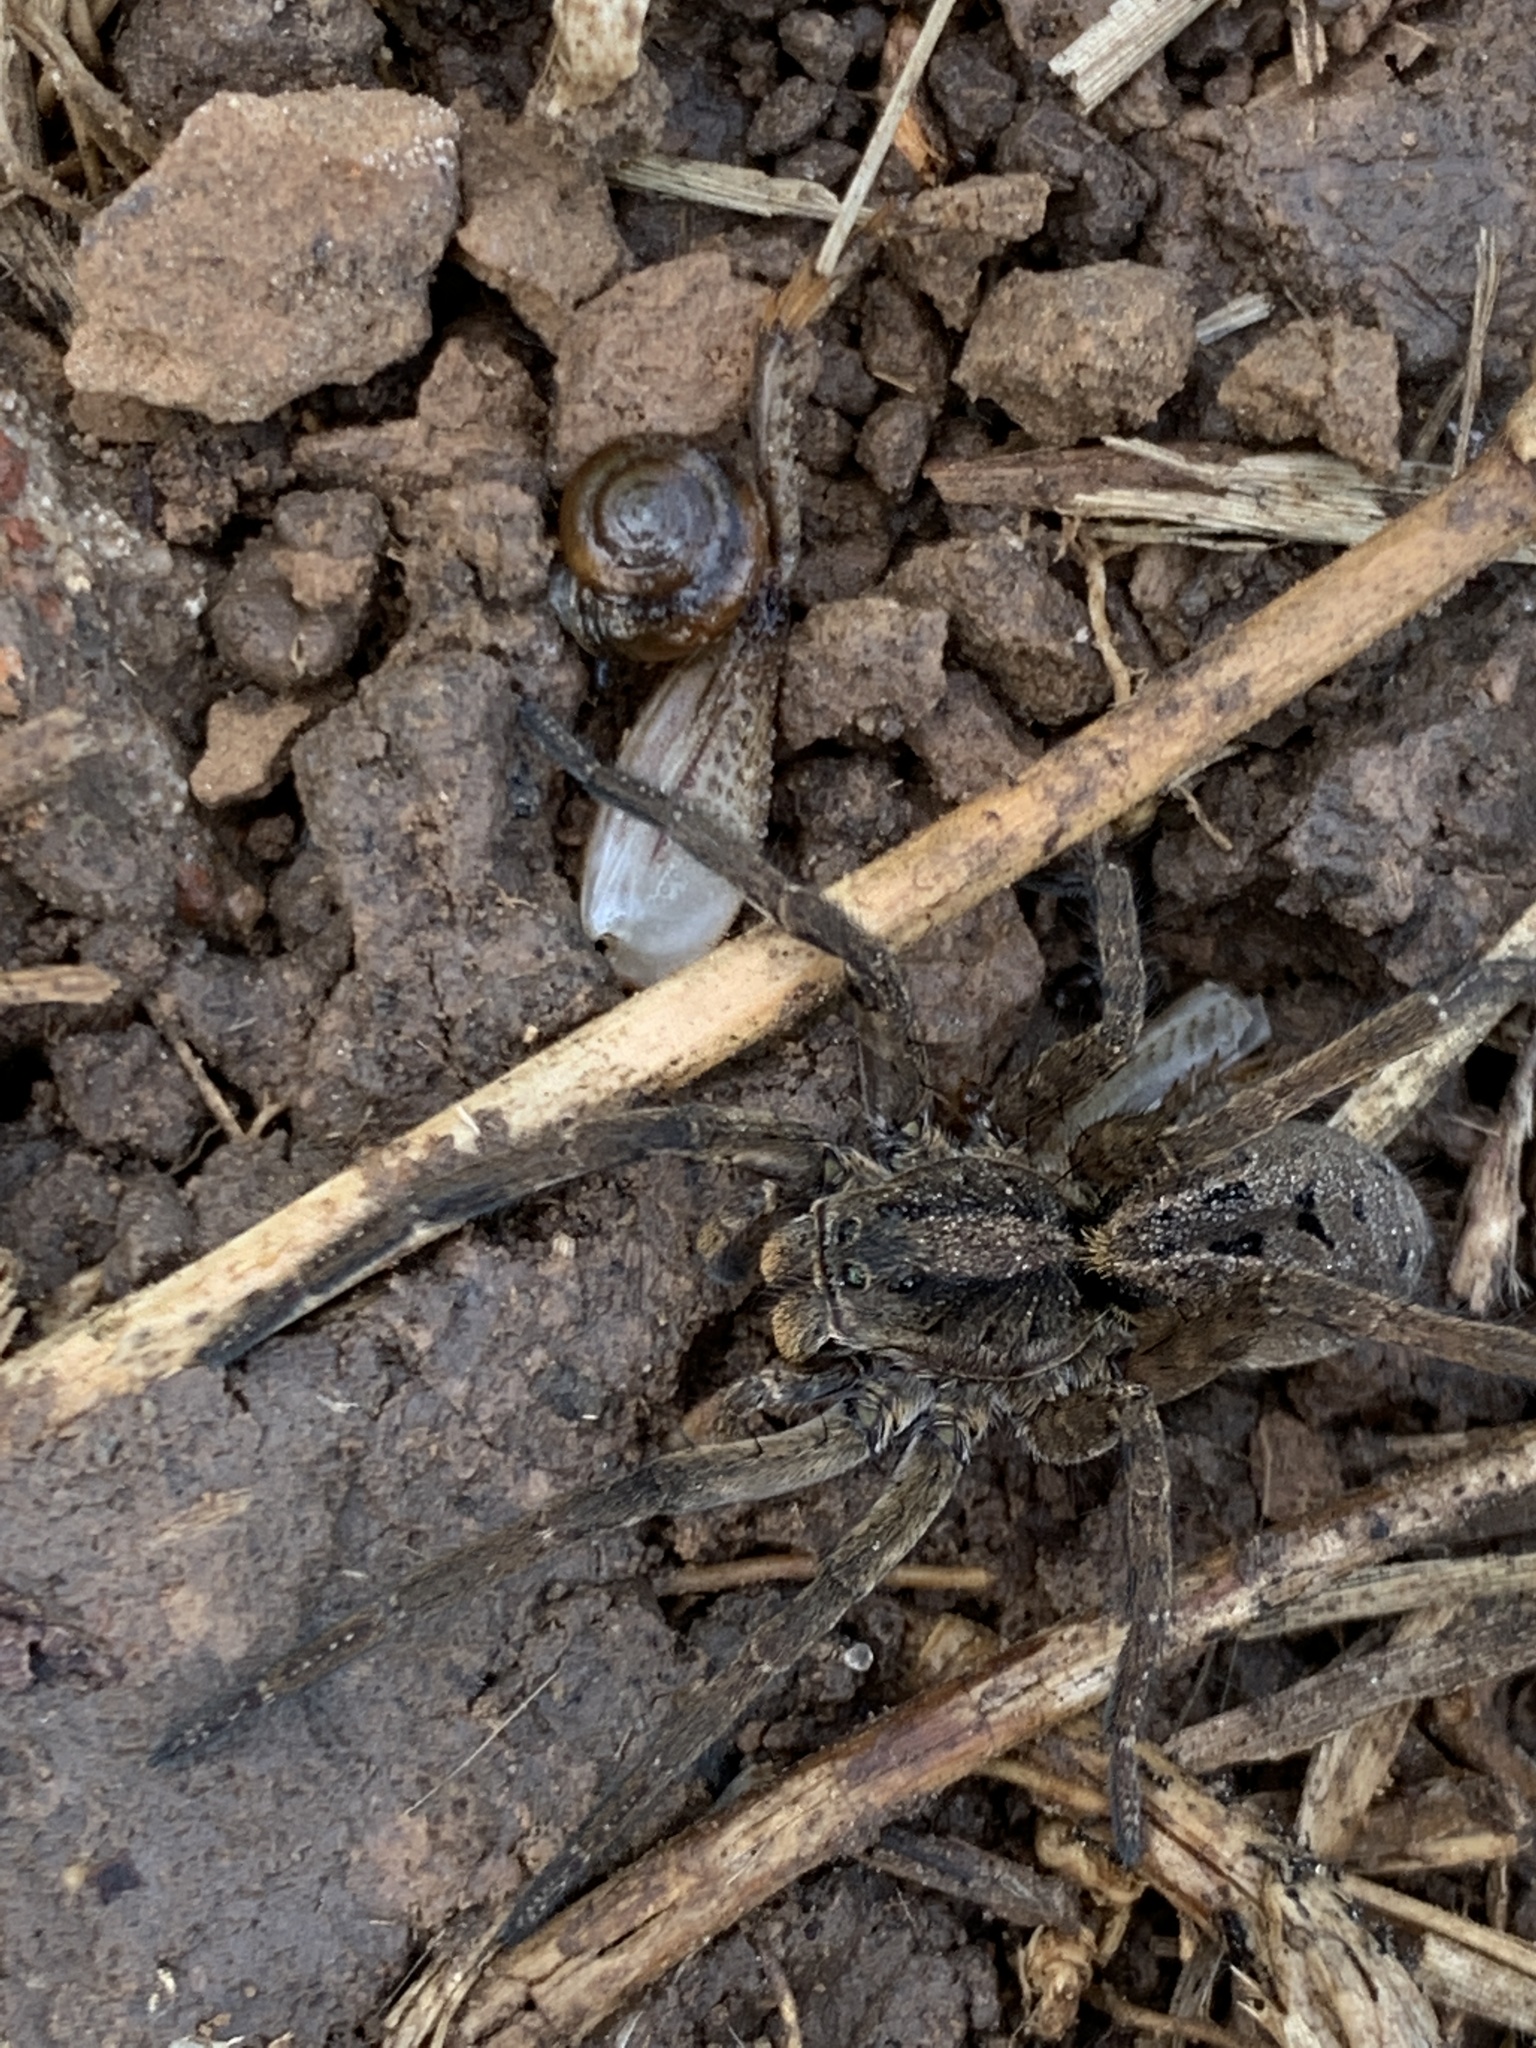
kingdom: Animalia
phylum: Arthropoda
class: Arachnida
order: Araneae
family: Lycosidae
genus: Lycosa
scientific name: Lycosa erythrognatha
